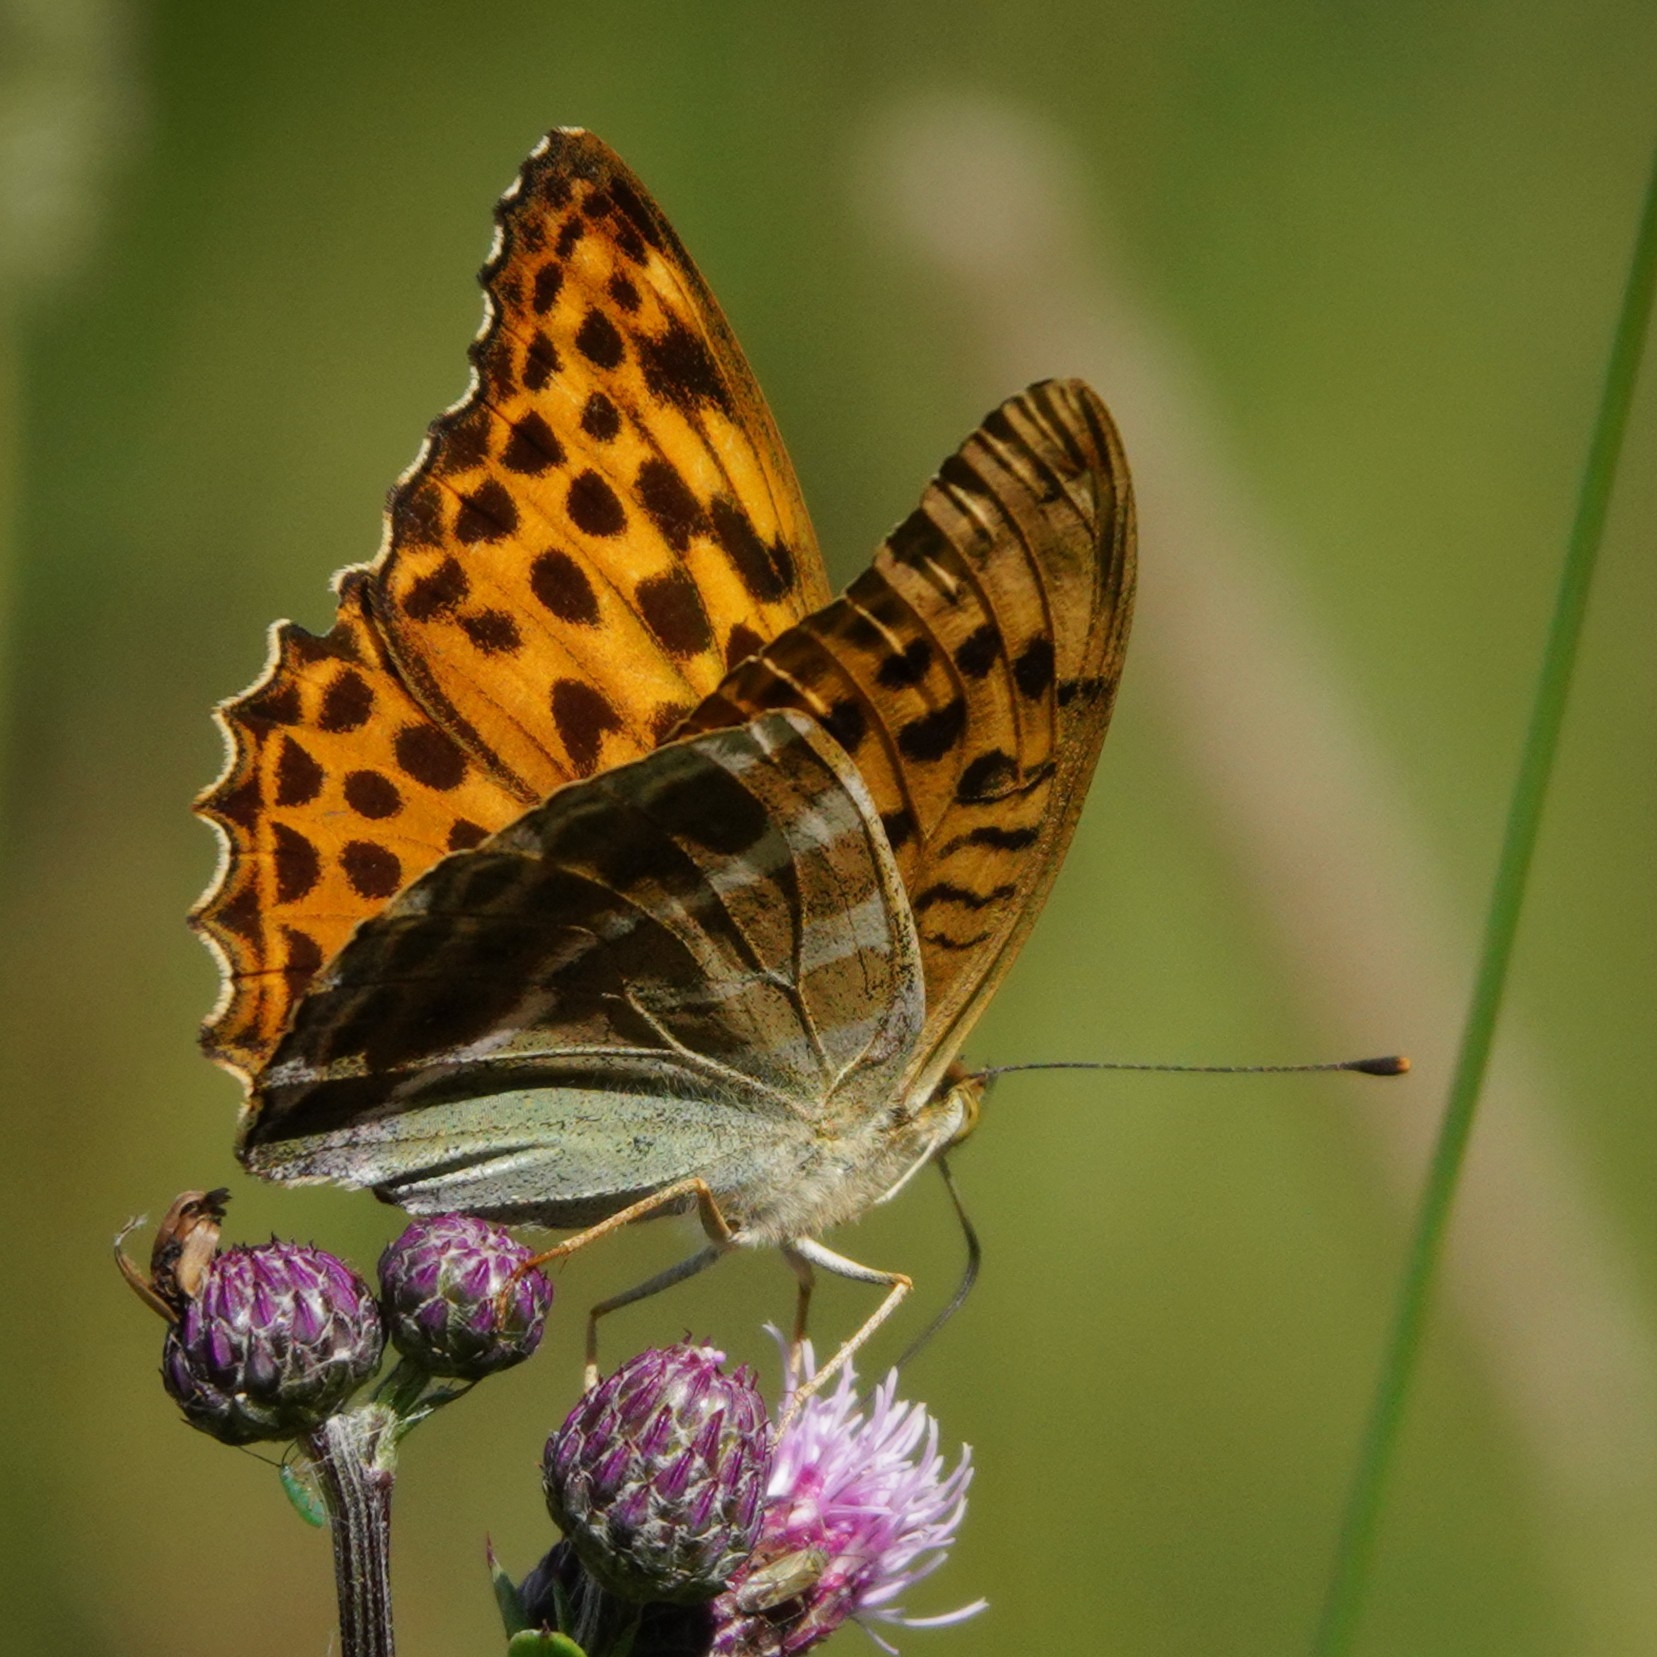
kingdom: Animalia
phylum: Arthropoda
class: Insecta
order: Lepidoptera
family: Nymphalidae
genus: Argynnis
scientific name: Argynnis paphia
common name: Silver-washed fritillary
